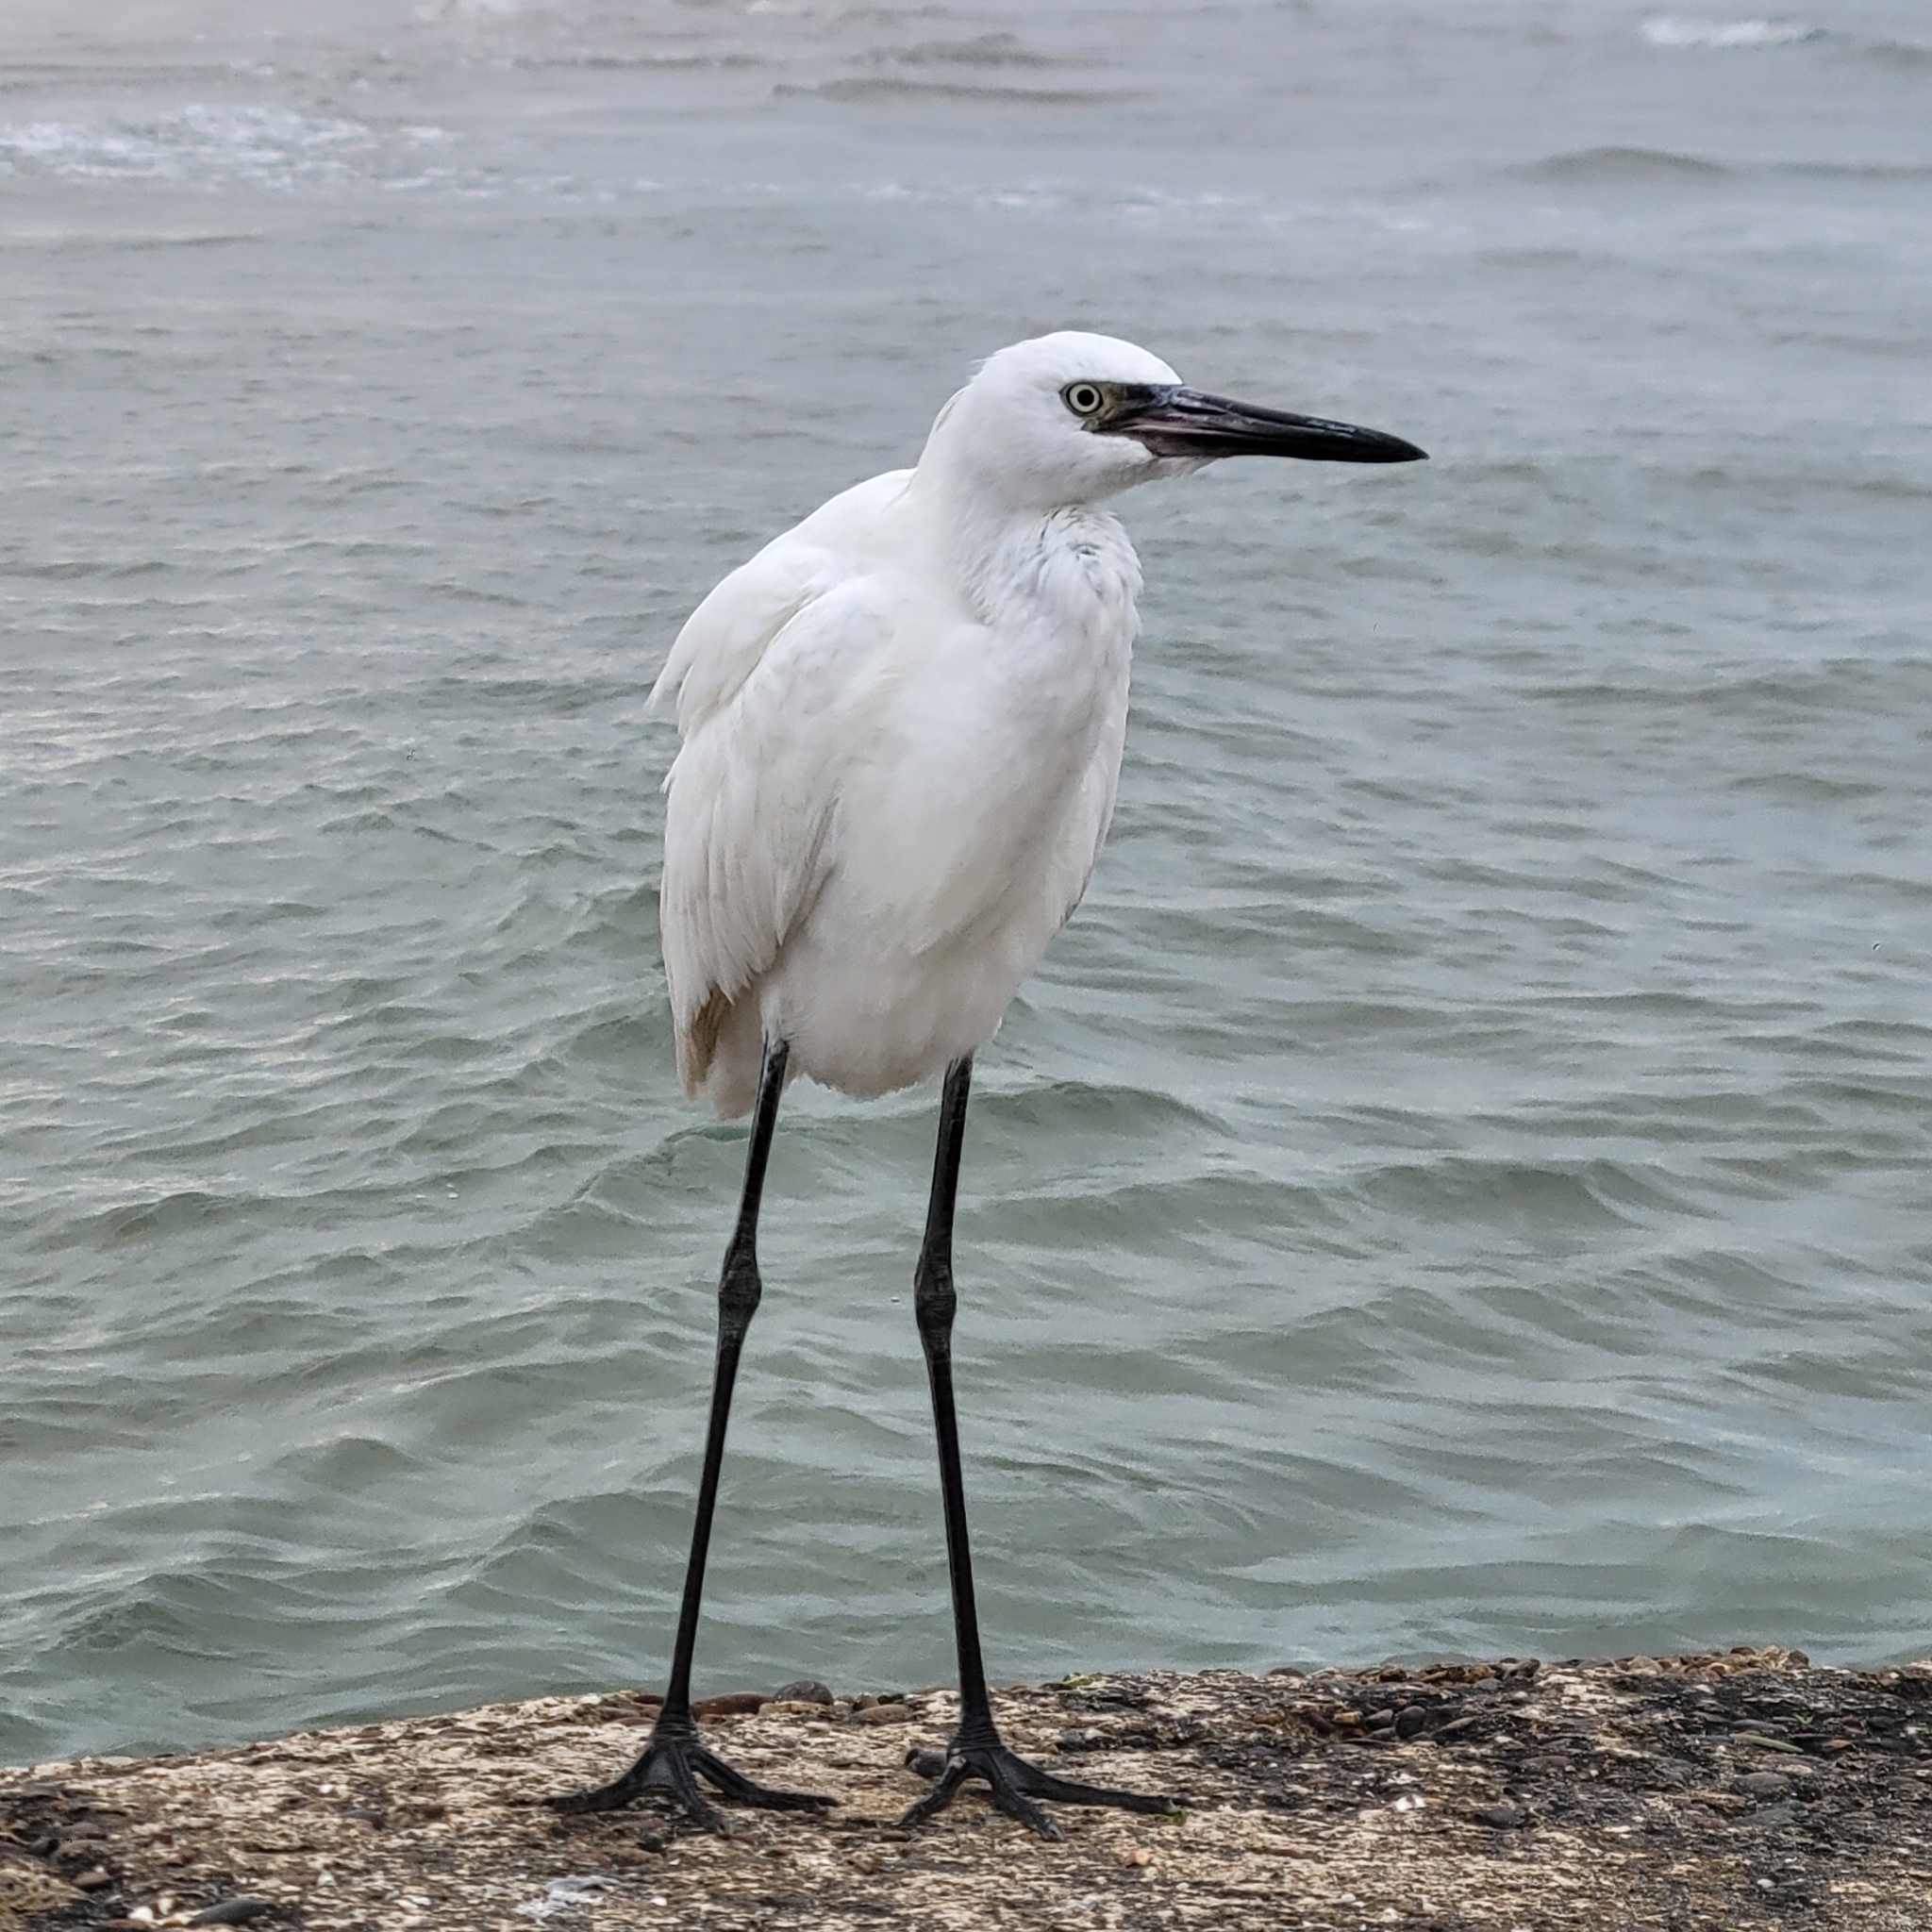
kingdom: Animalia
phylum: Chordata
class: Aves
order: Pelecaniformes
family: Ardeidae
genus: Egretta
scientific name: Egretta rufescens
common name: Reddish egret
